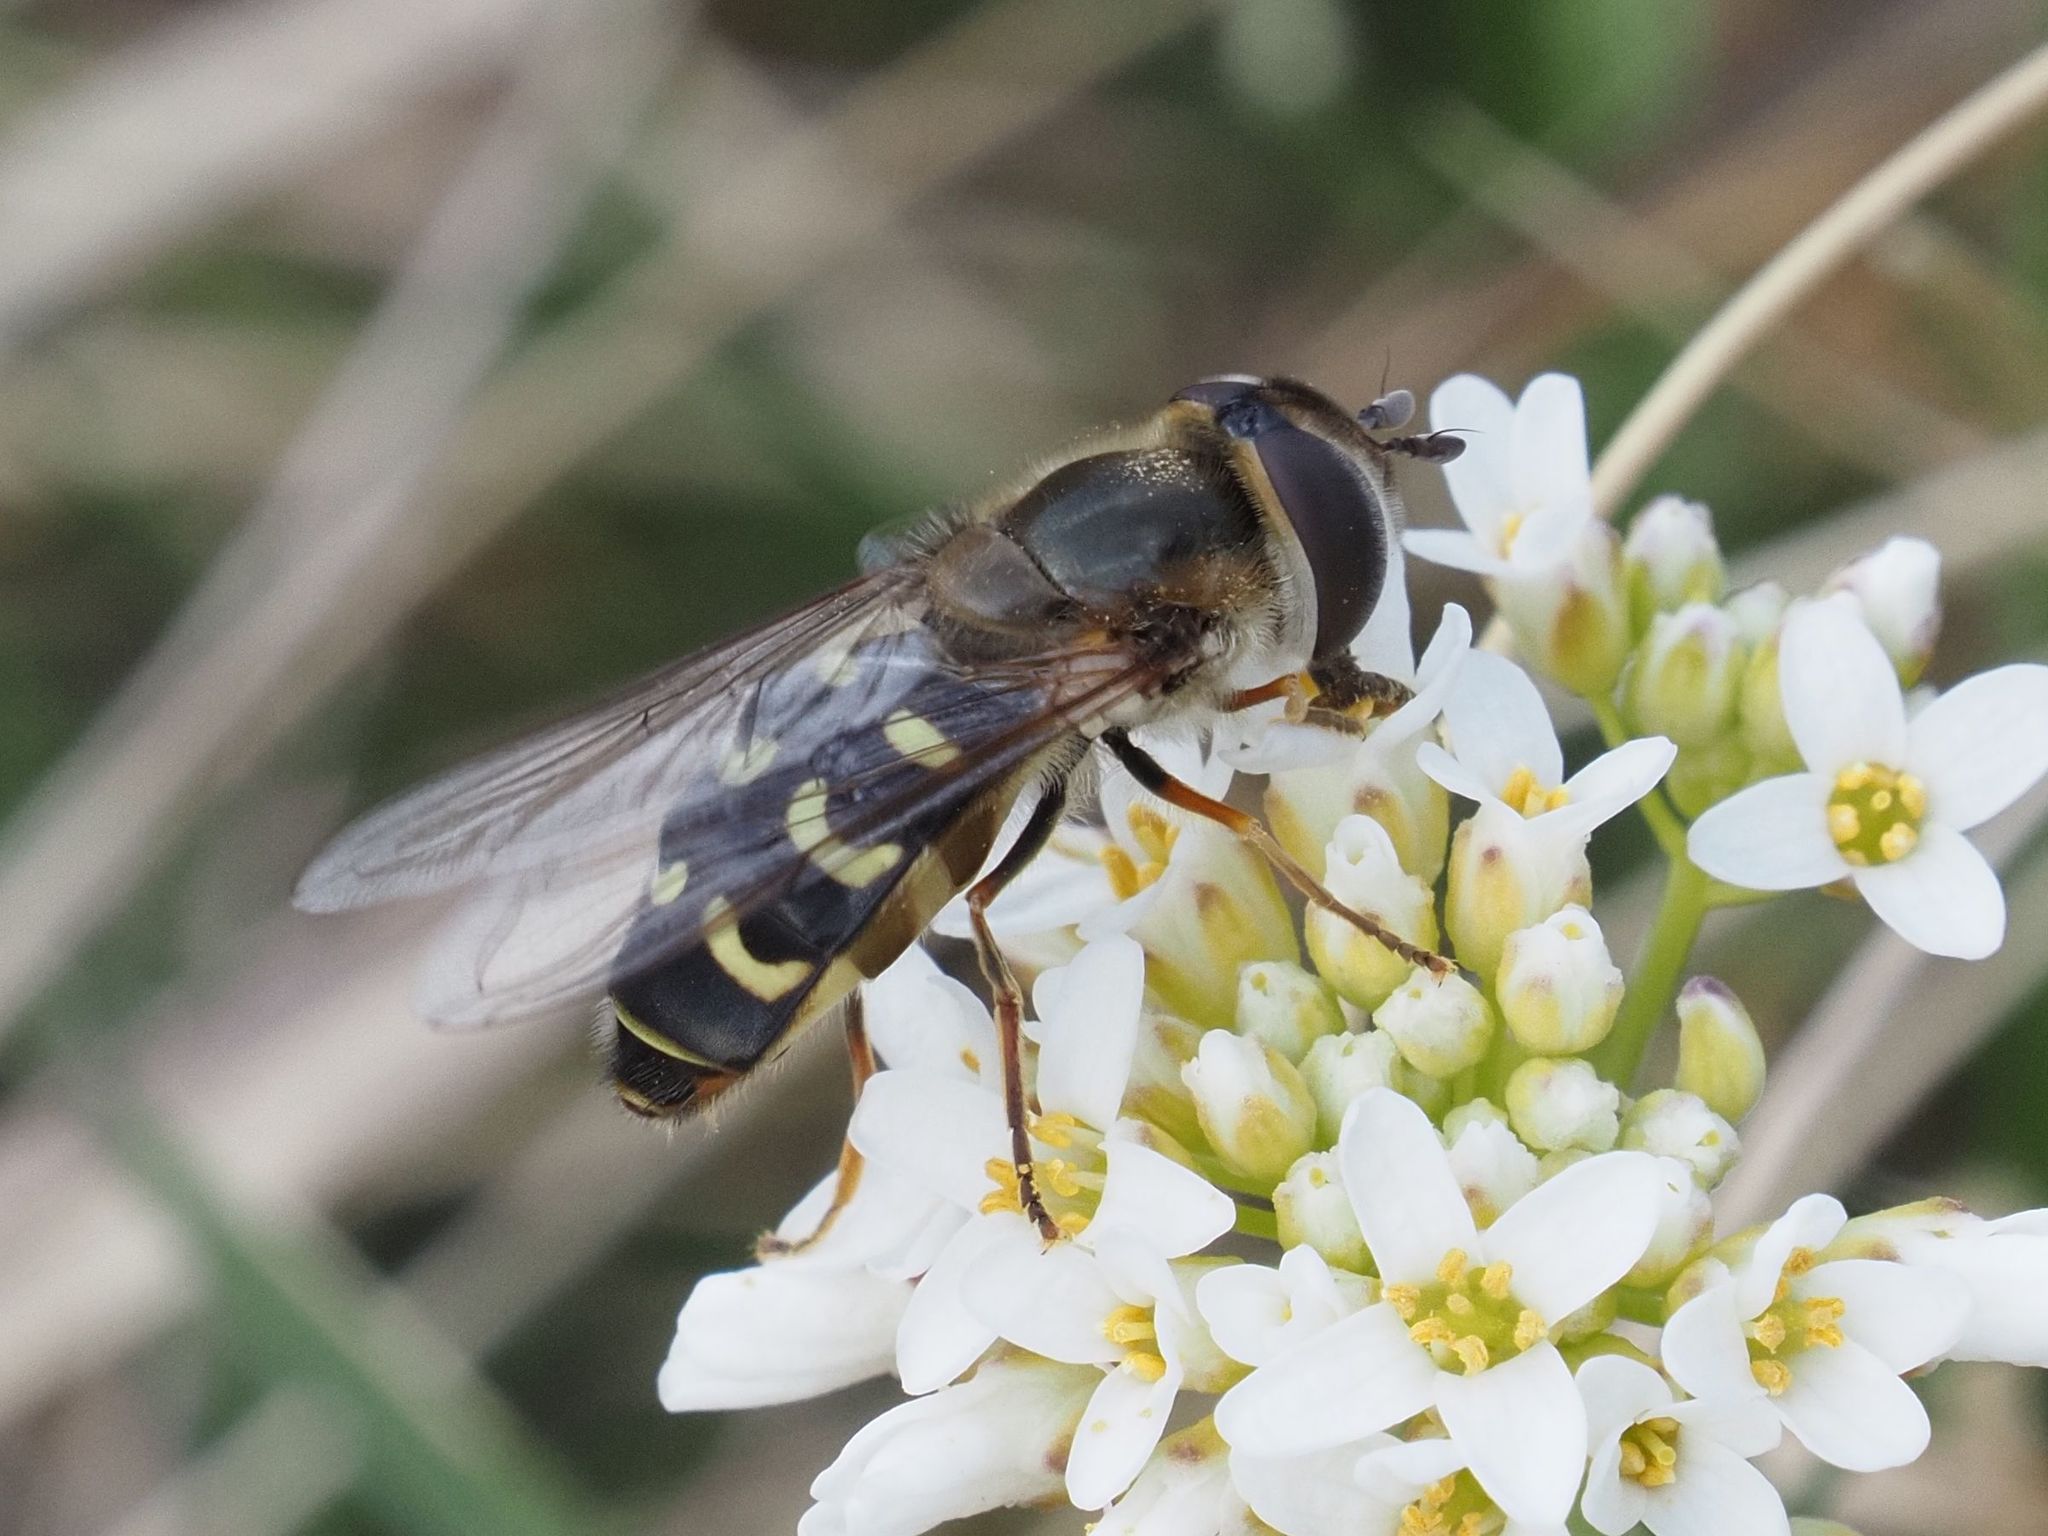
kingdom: Animalia
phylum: Arthropoda
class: Insecta
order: Diptera
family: Syrphidae
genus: Scaeva
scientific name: Scaeva selenitica
